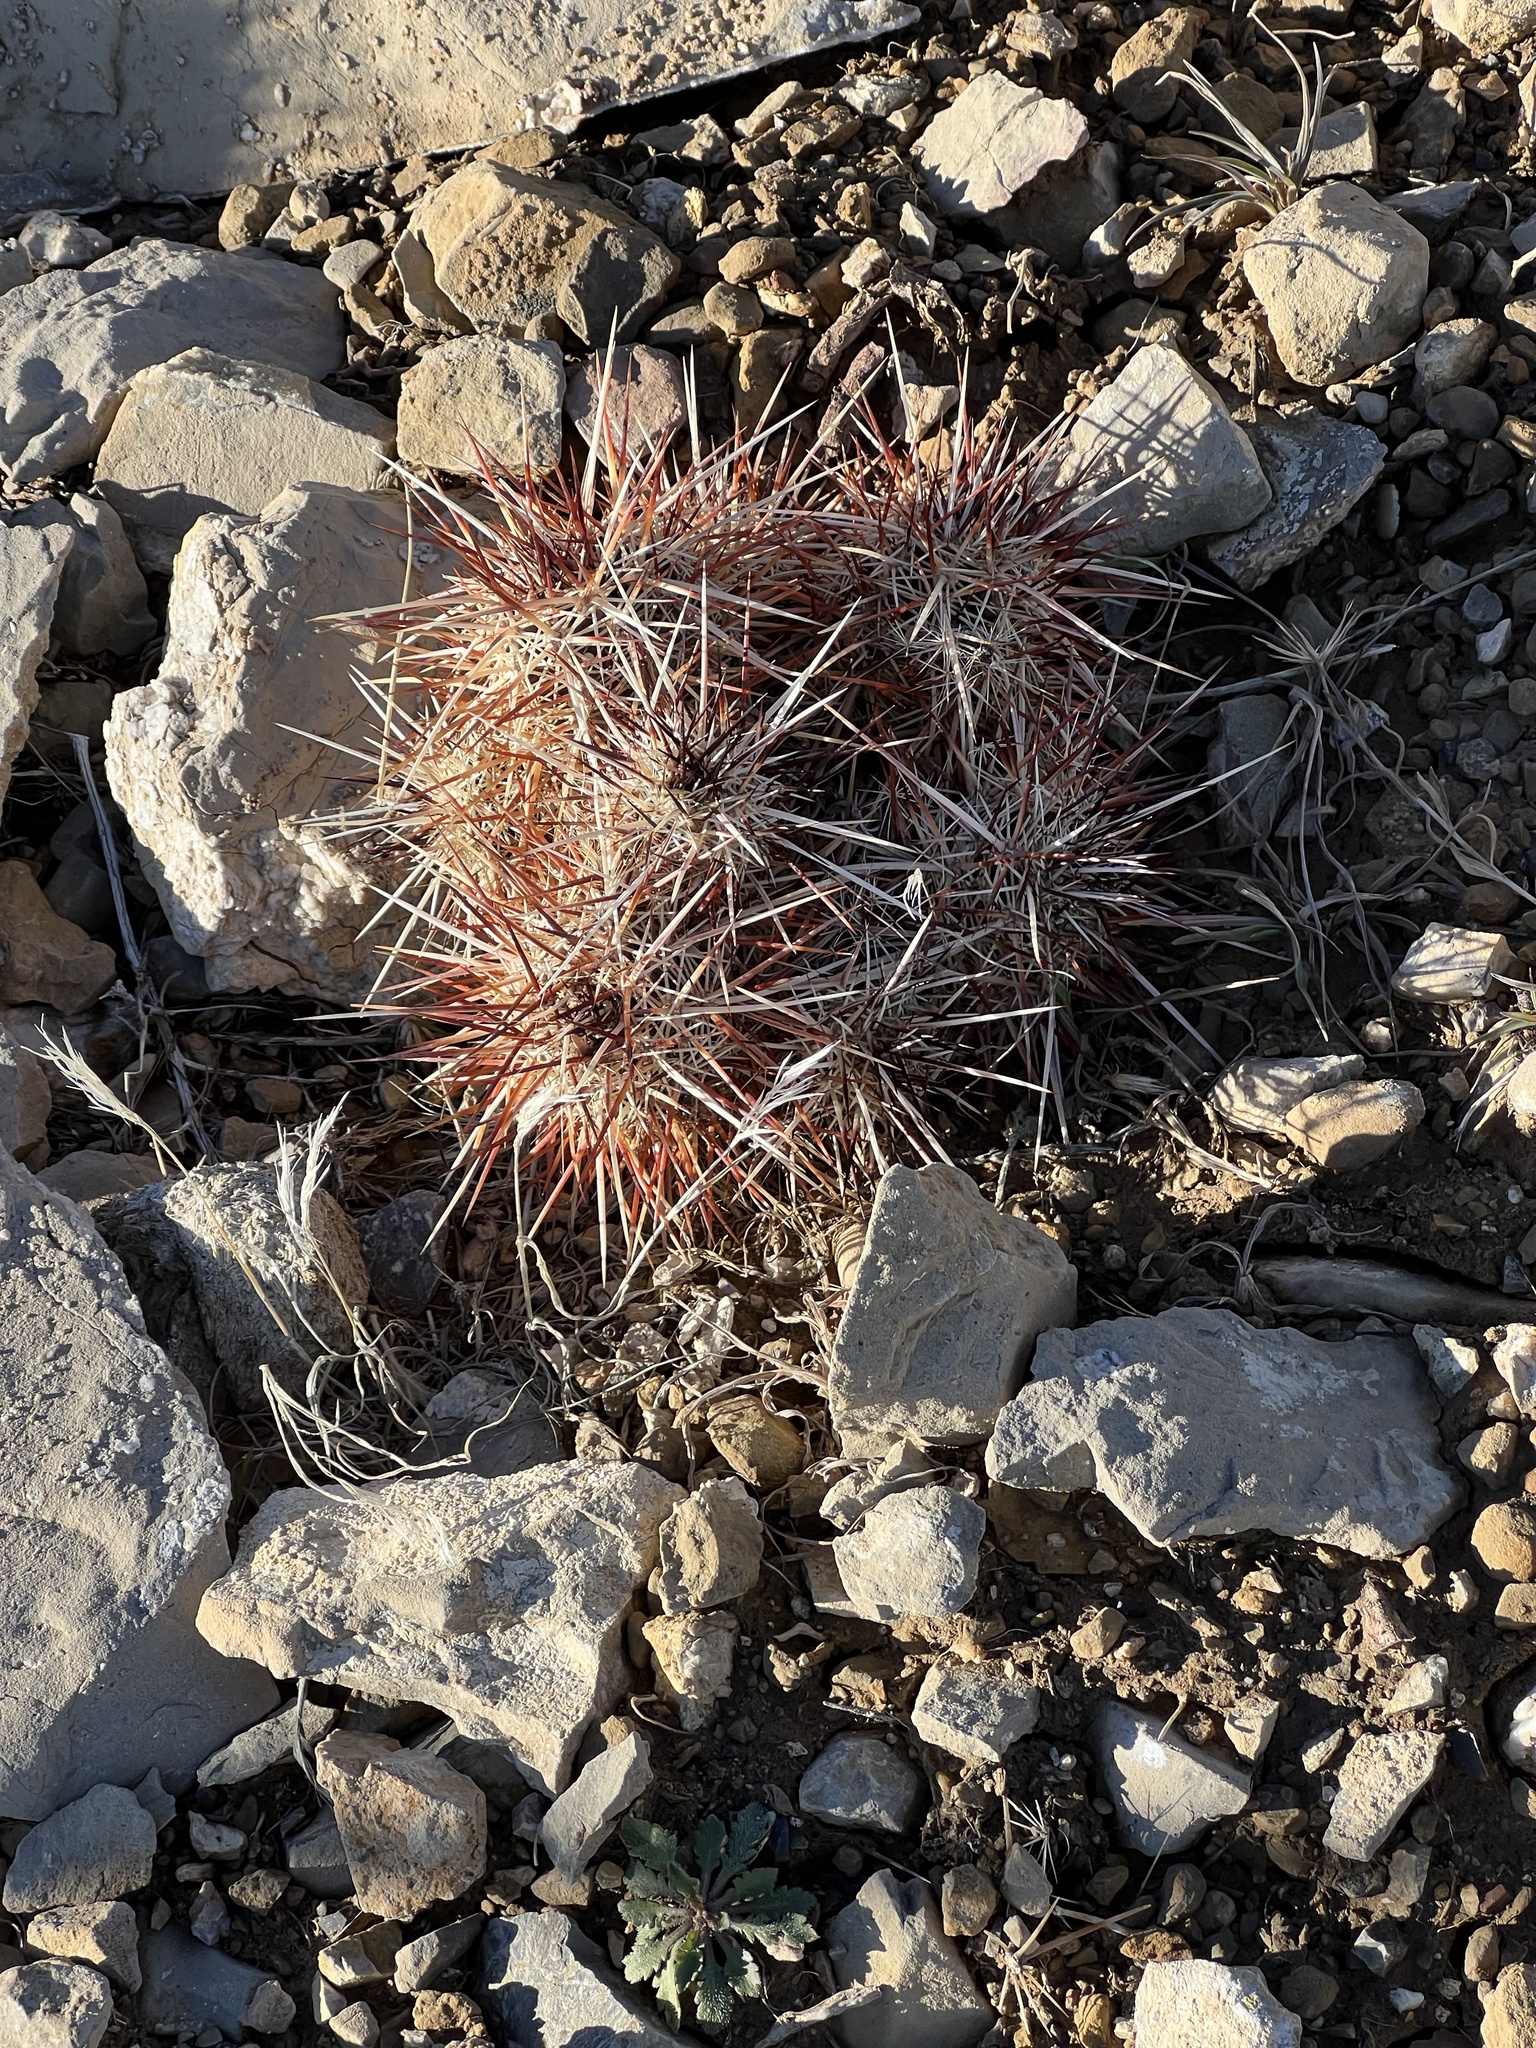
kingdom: Plantae
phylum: Tracheophyta
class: Magnoliopsida
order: Caryophyllales
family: Cactaceae
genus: Echinocereus
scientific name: Echinocereus engelmannii
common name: Engelmann's hedgehog cactus
